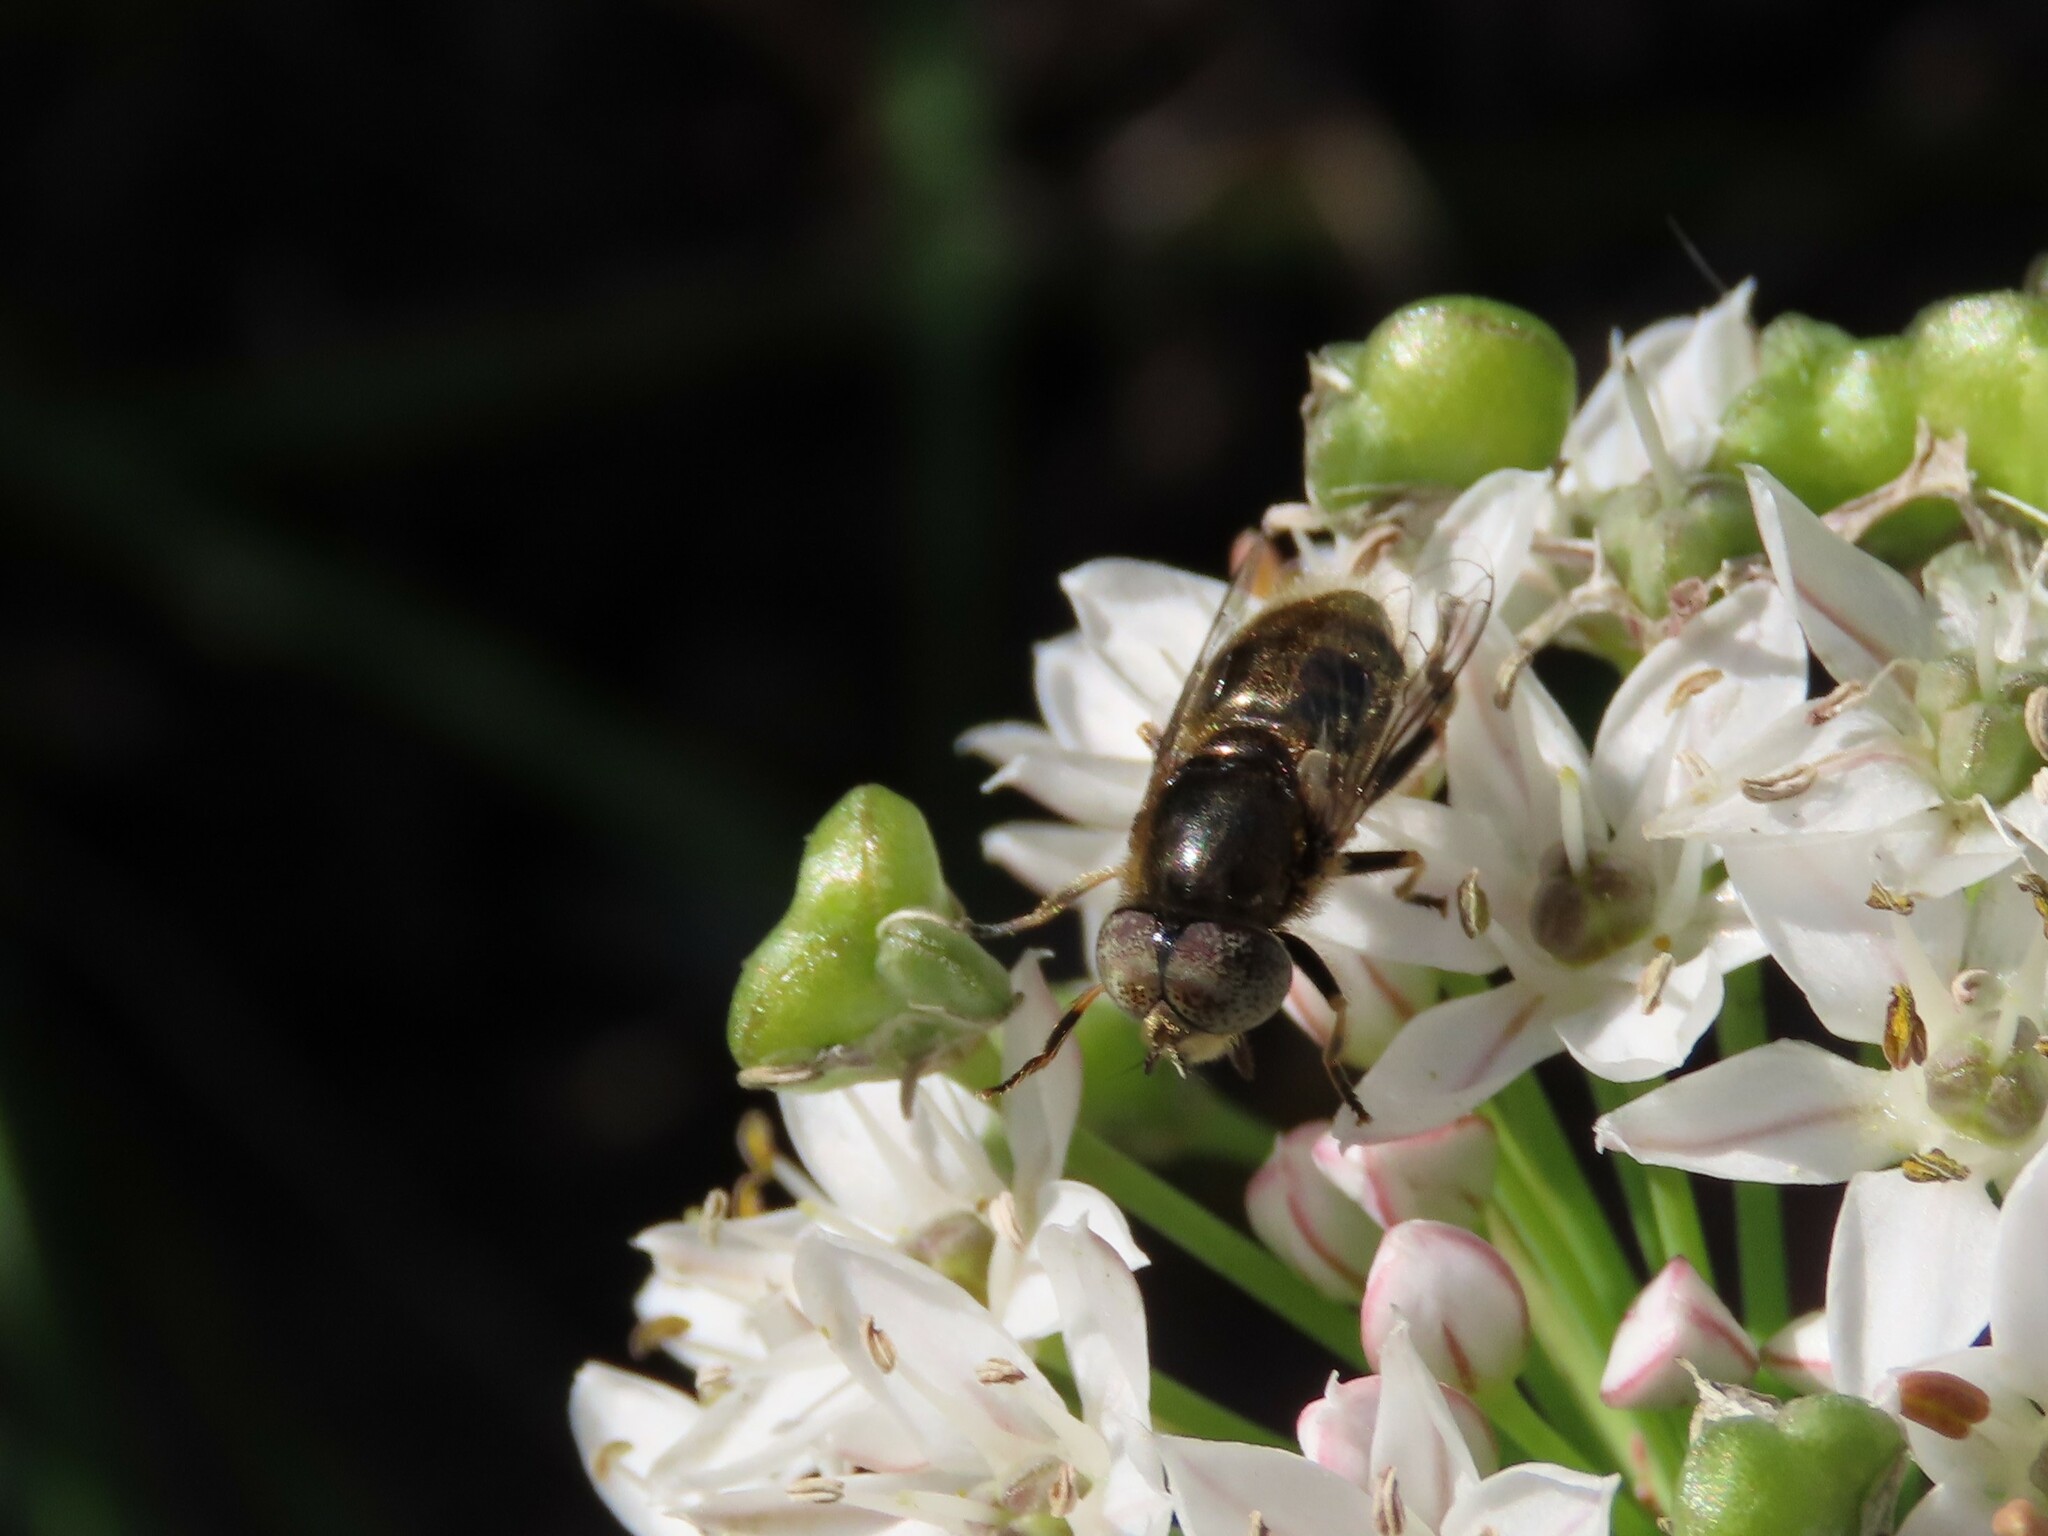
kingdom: Animalia
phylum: Arthropoda
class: Insecta
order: Diptera
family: Syrphidae
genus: Eristalinus
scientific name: Eristalinus aeneus
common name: Syrphid fly
